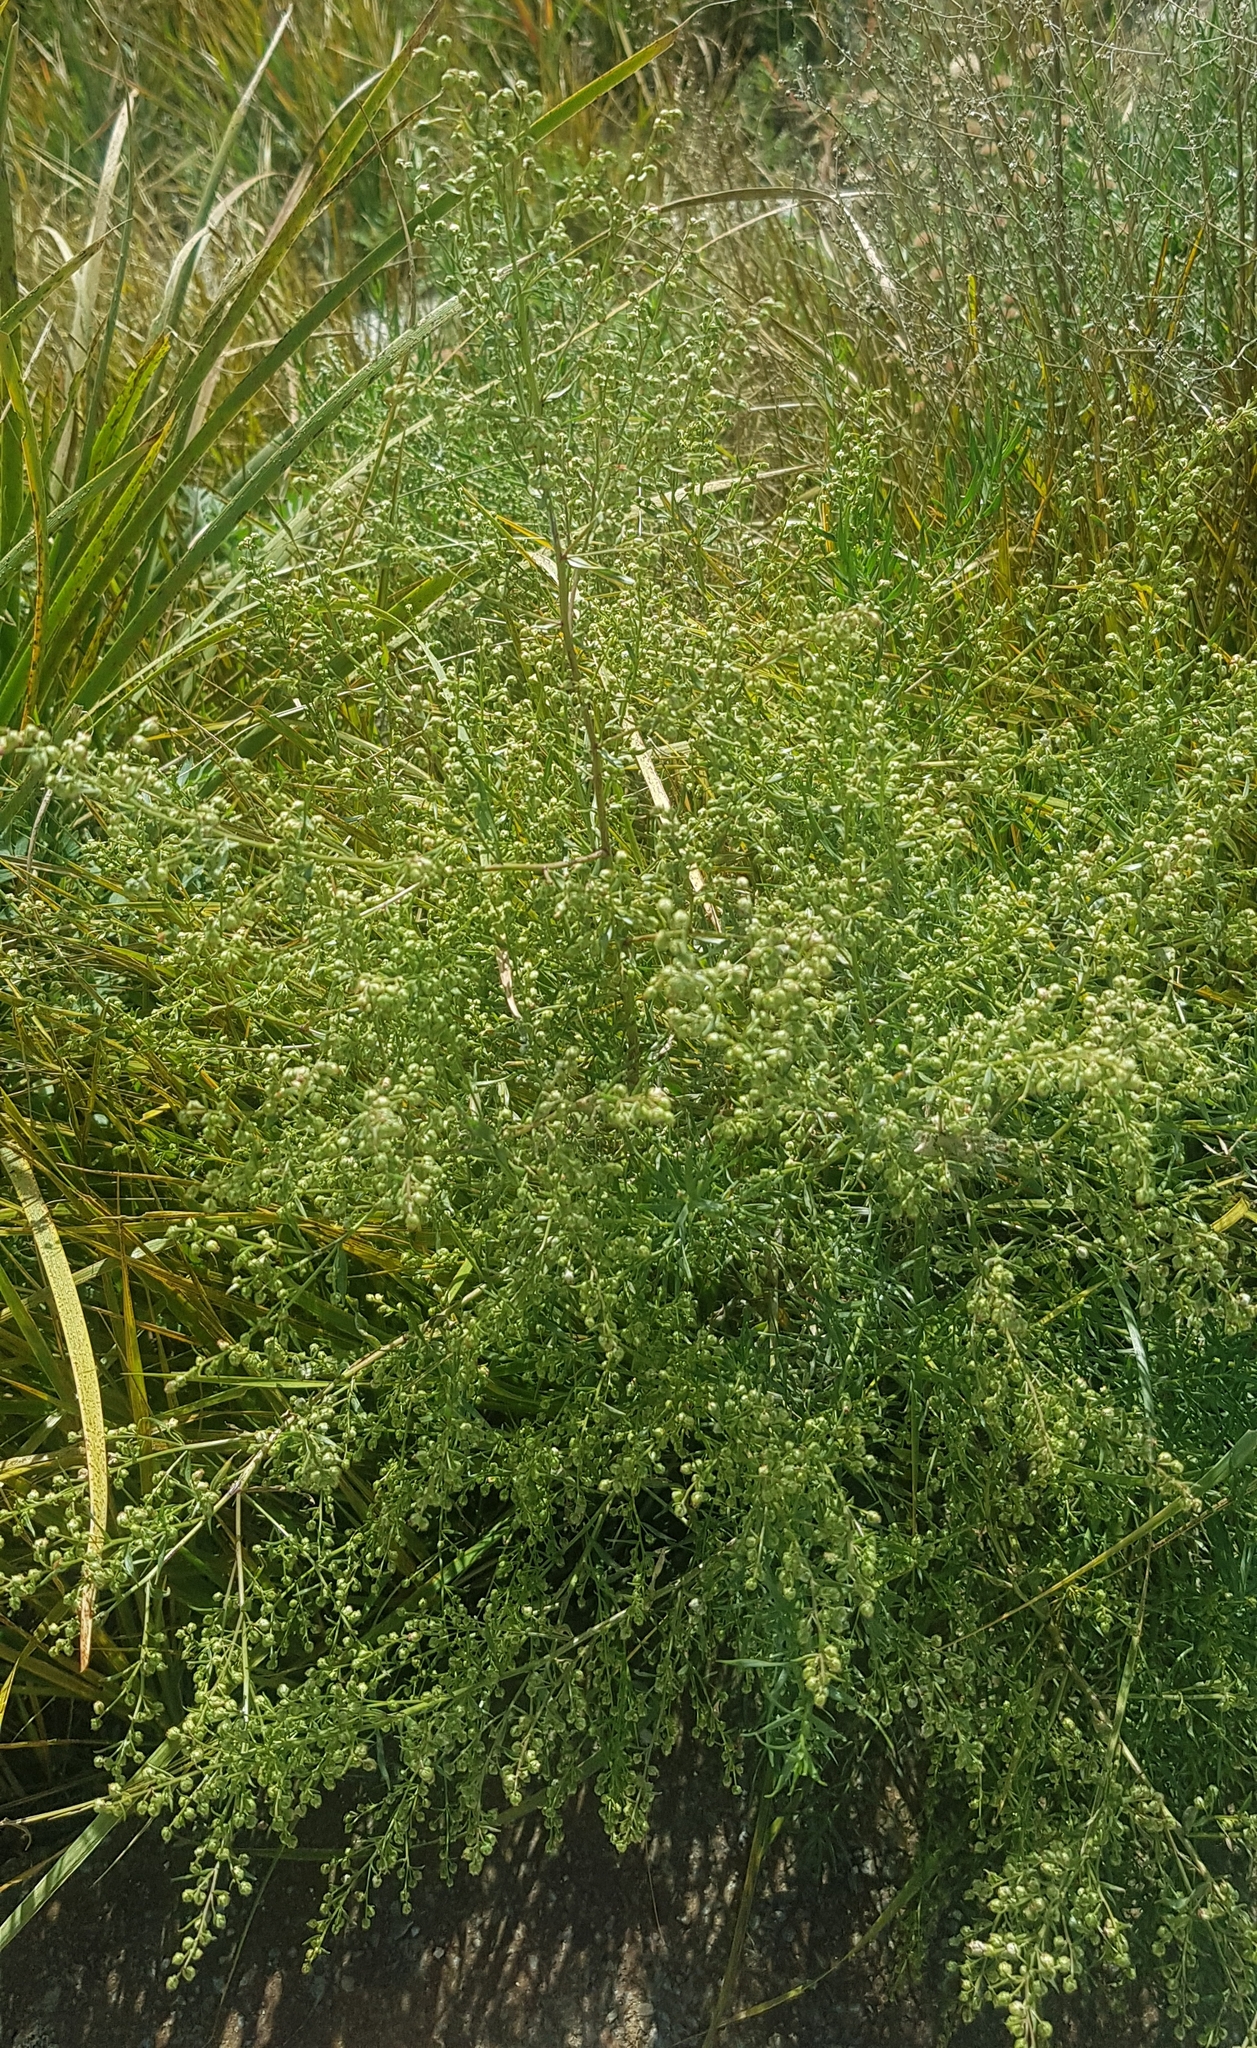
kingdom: Plantae
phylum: Tracheophyta
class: Magnoliopsida
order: Asterales
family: Asteraceae
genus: Artemisia
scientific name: Artemisia scoparia
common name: Redstem wormwood
